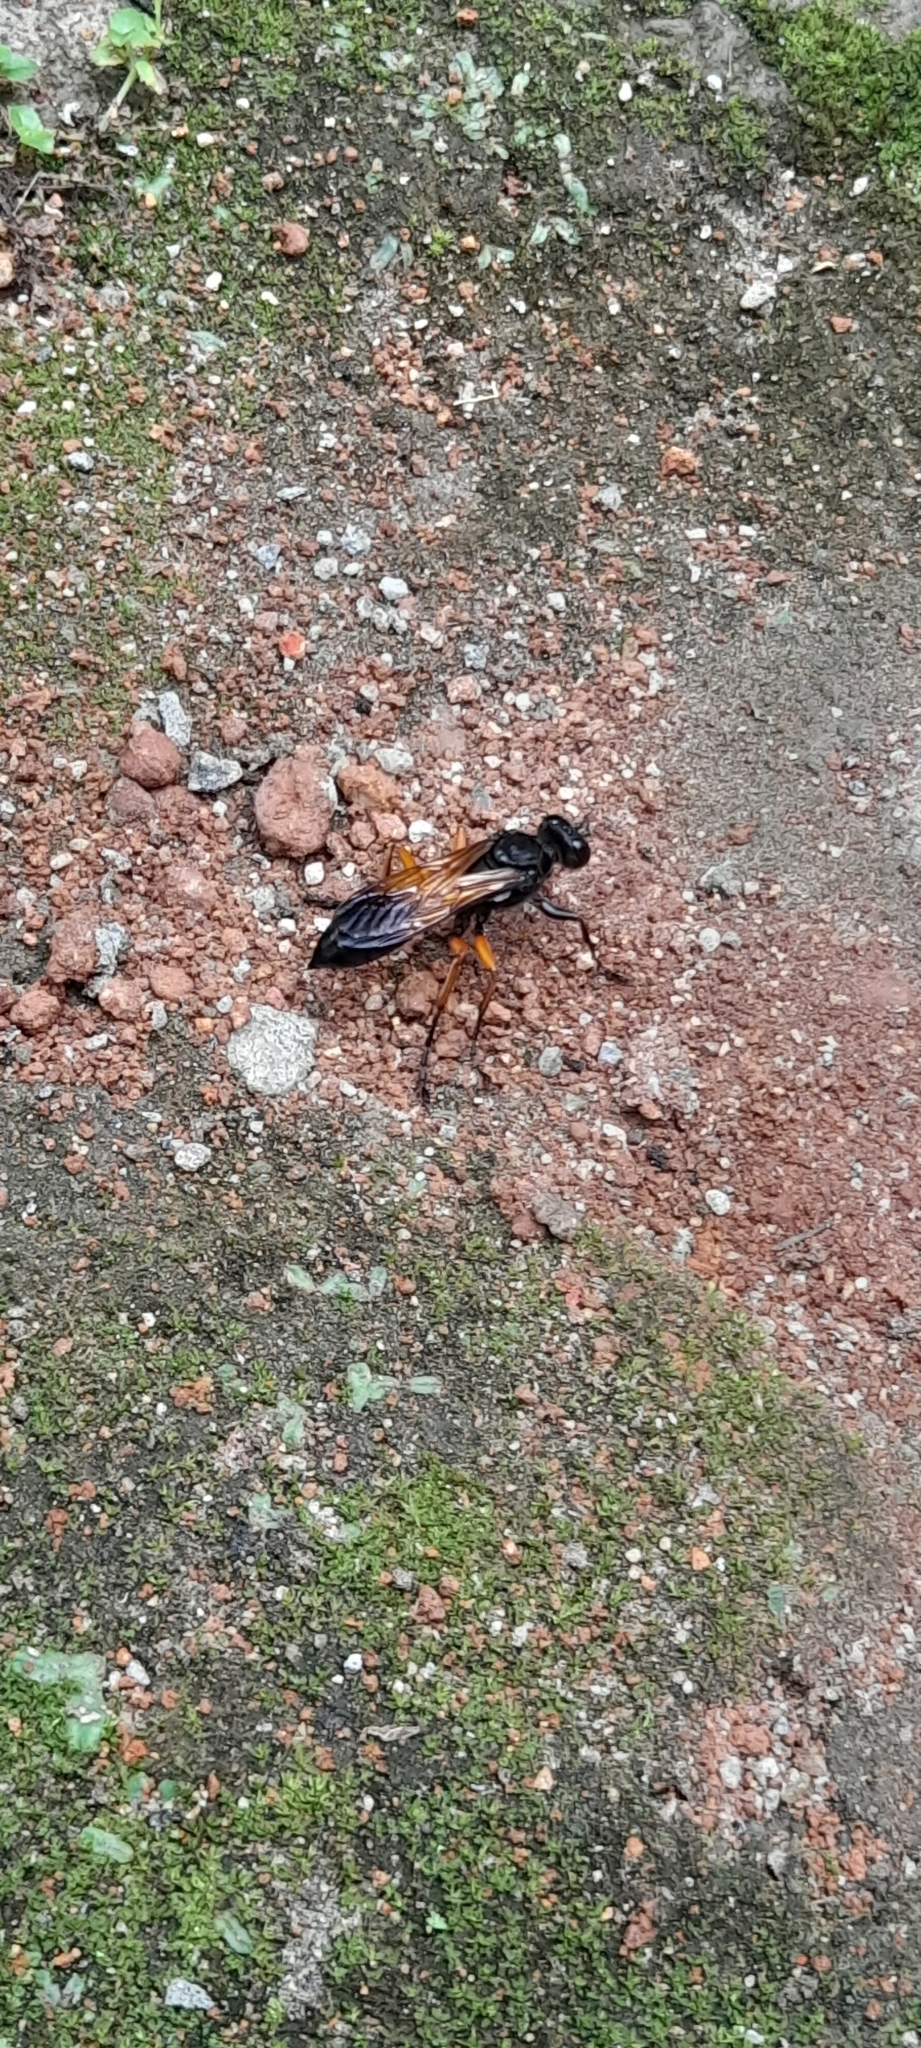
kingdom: Animalia
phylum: Arthropoda
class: Insecta
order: Hymenoptera
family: Sphecidae
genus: Sphex
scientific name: Sphex subtruncatus
